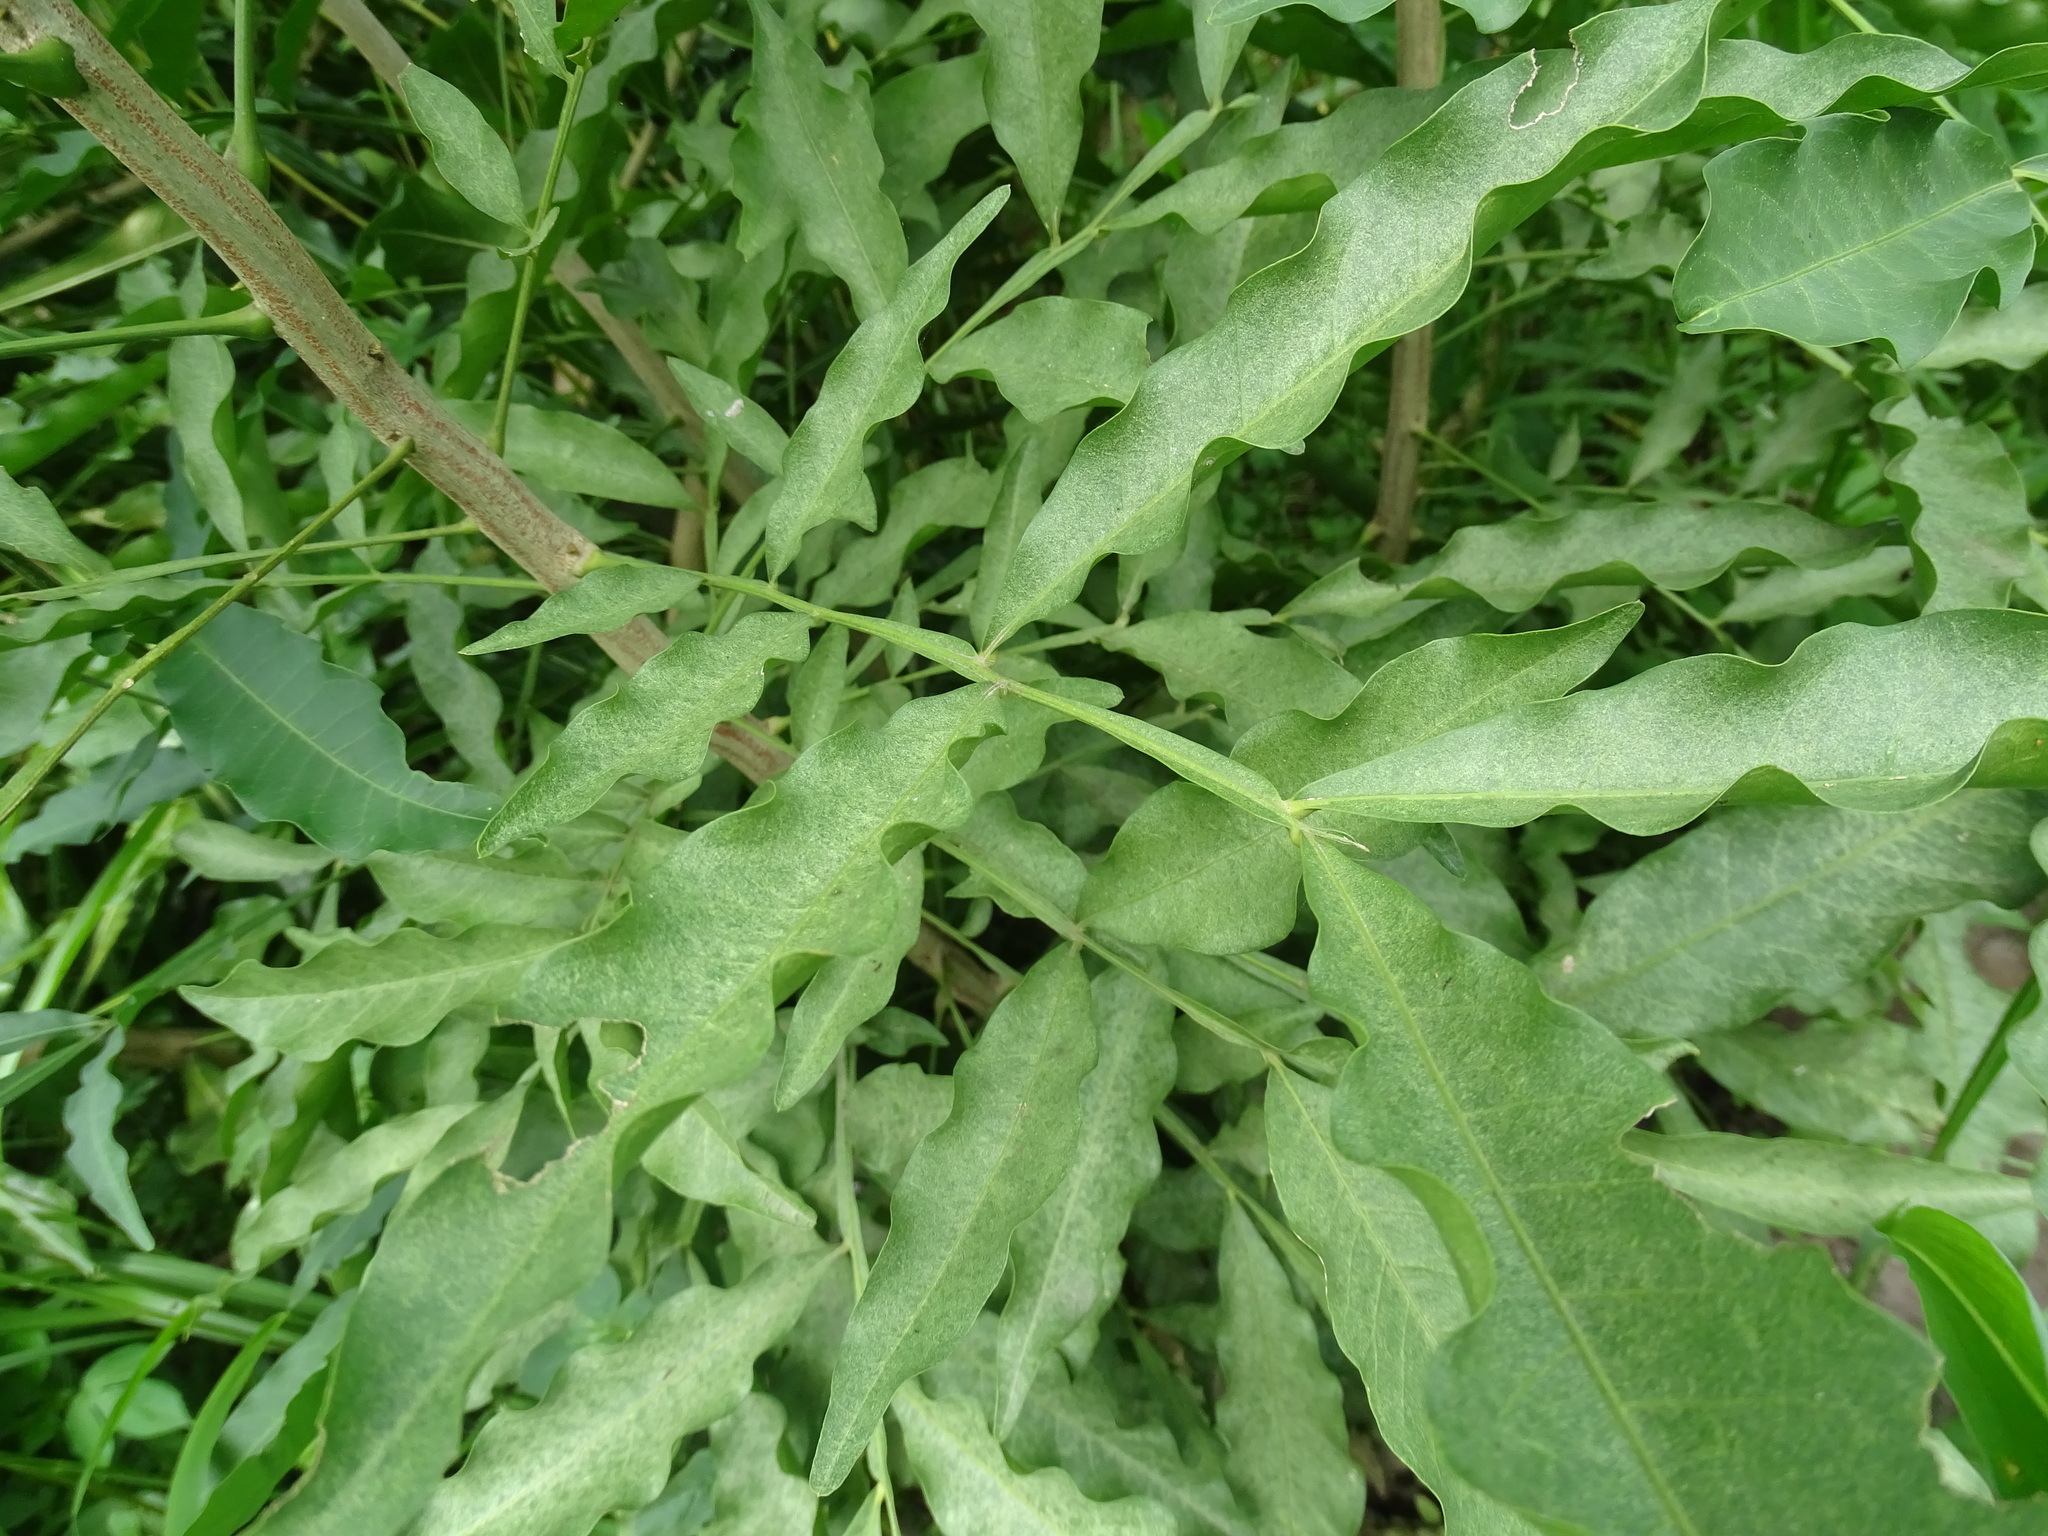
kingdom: Plantae
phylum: Tracheophyta
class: Magnoliopsida
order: Sapindales
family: Sapindaceae
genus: Sapindus
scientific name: Sapindus saponaria
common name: Wingleaf soapberry
